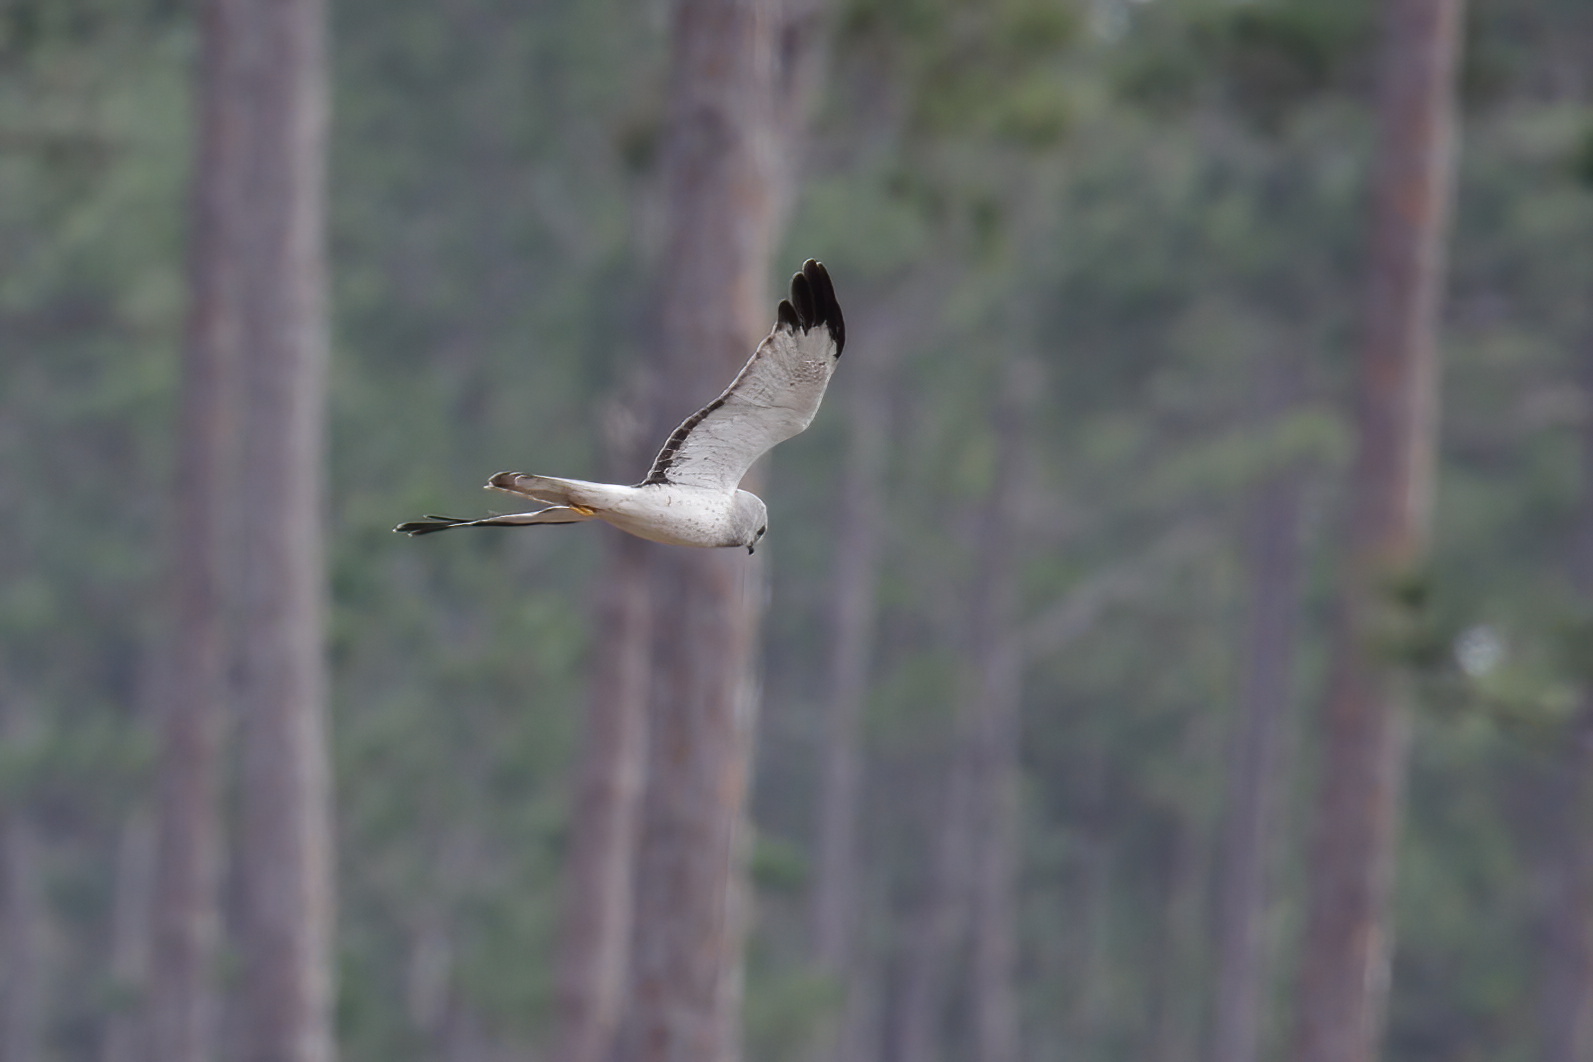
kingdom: Animalia
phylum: Chordata
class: Aves
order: Accipitriformes
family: Accipitridae
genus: Circus
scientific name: Circus cyaneus
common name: Hen harrier
